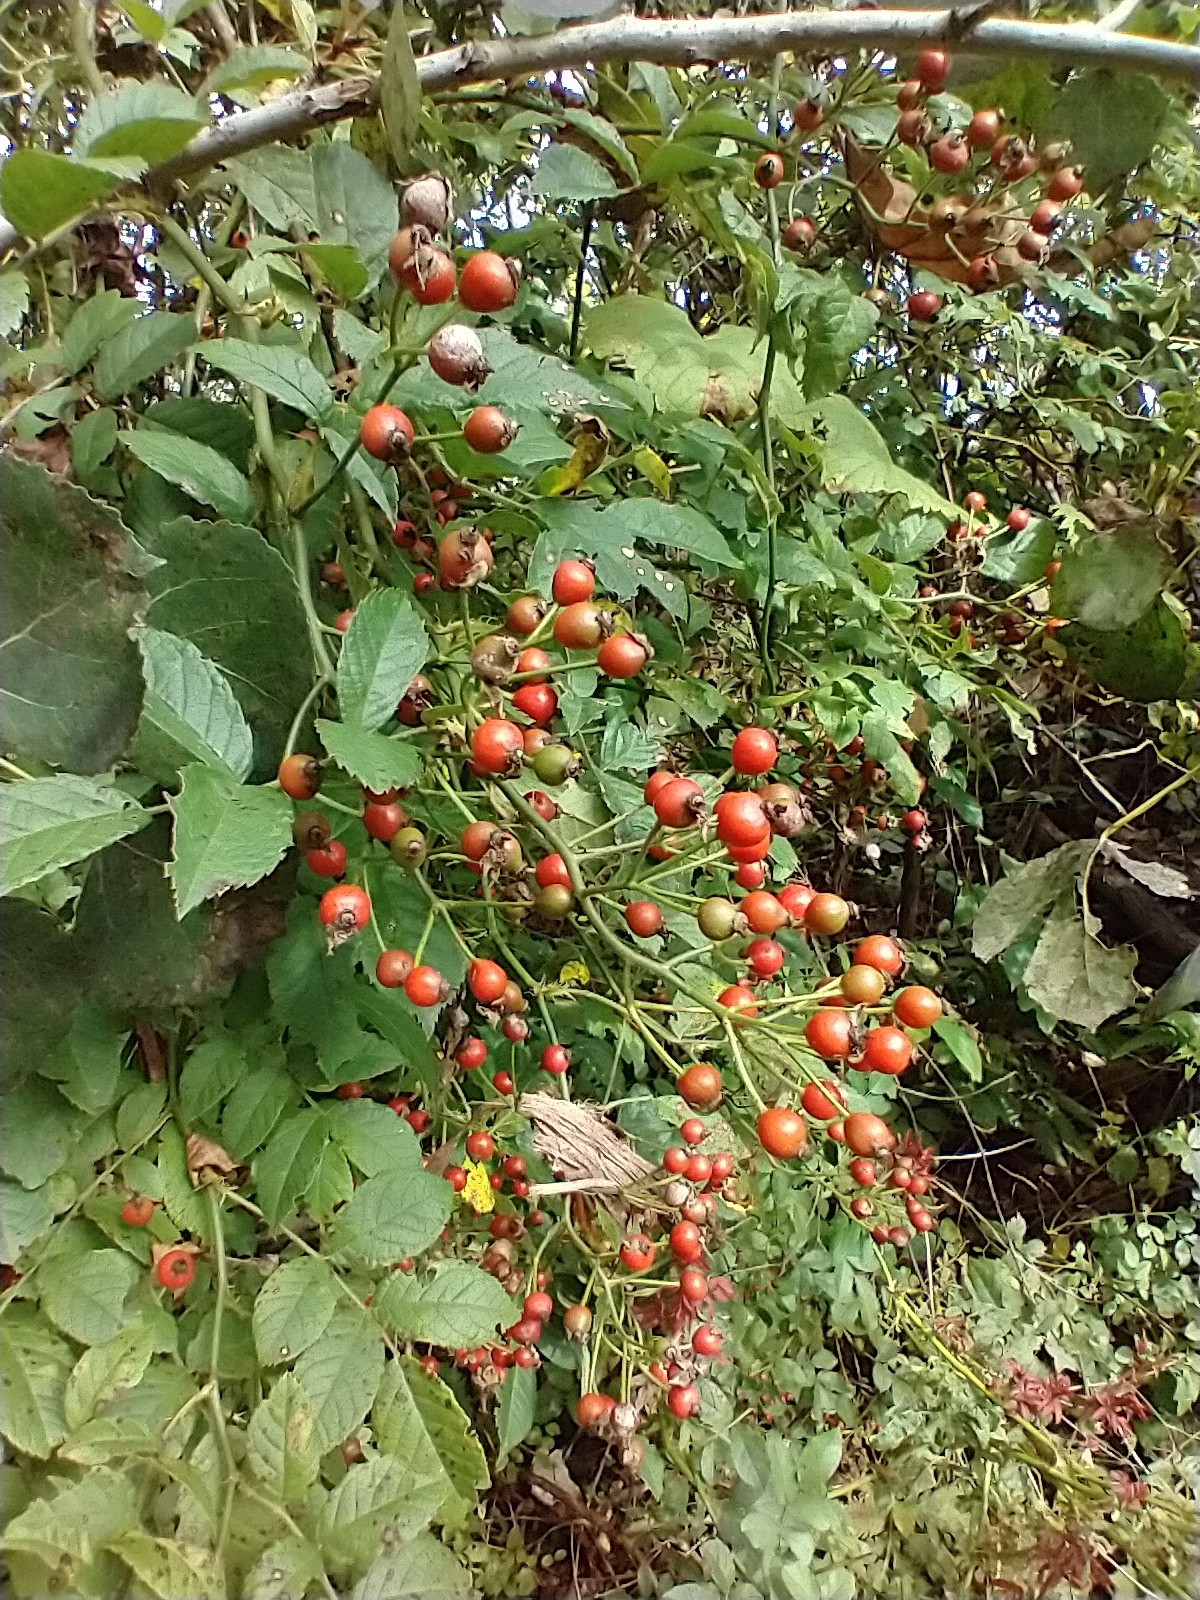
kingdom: Plantae
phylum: Tracheophyta
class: Magnoliopsida
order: Rosales
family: Rosaceae
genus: Rosa
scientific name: Rosa multiflora
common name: Multiflora rose
